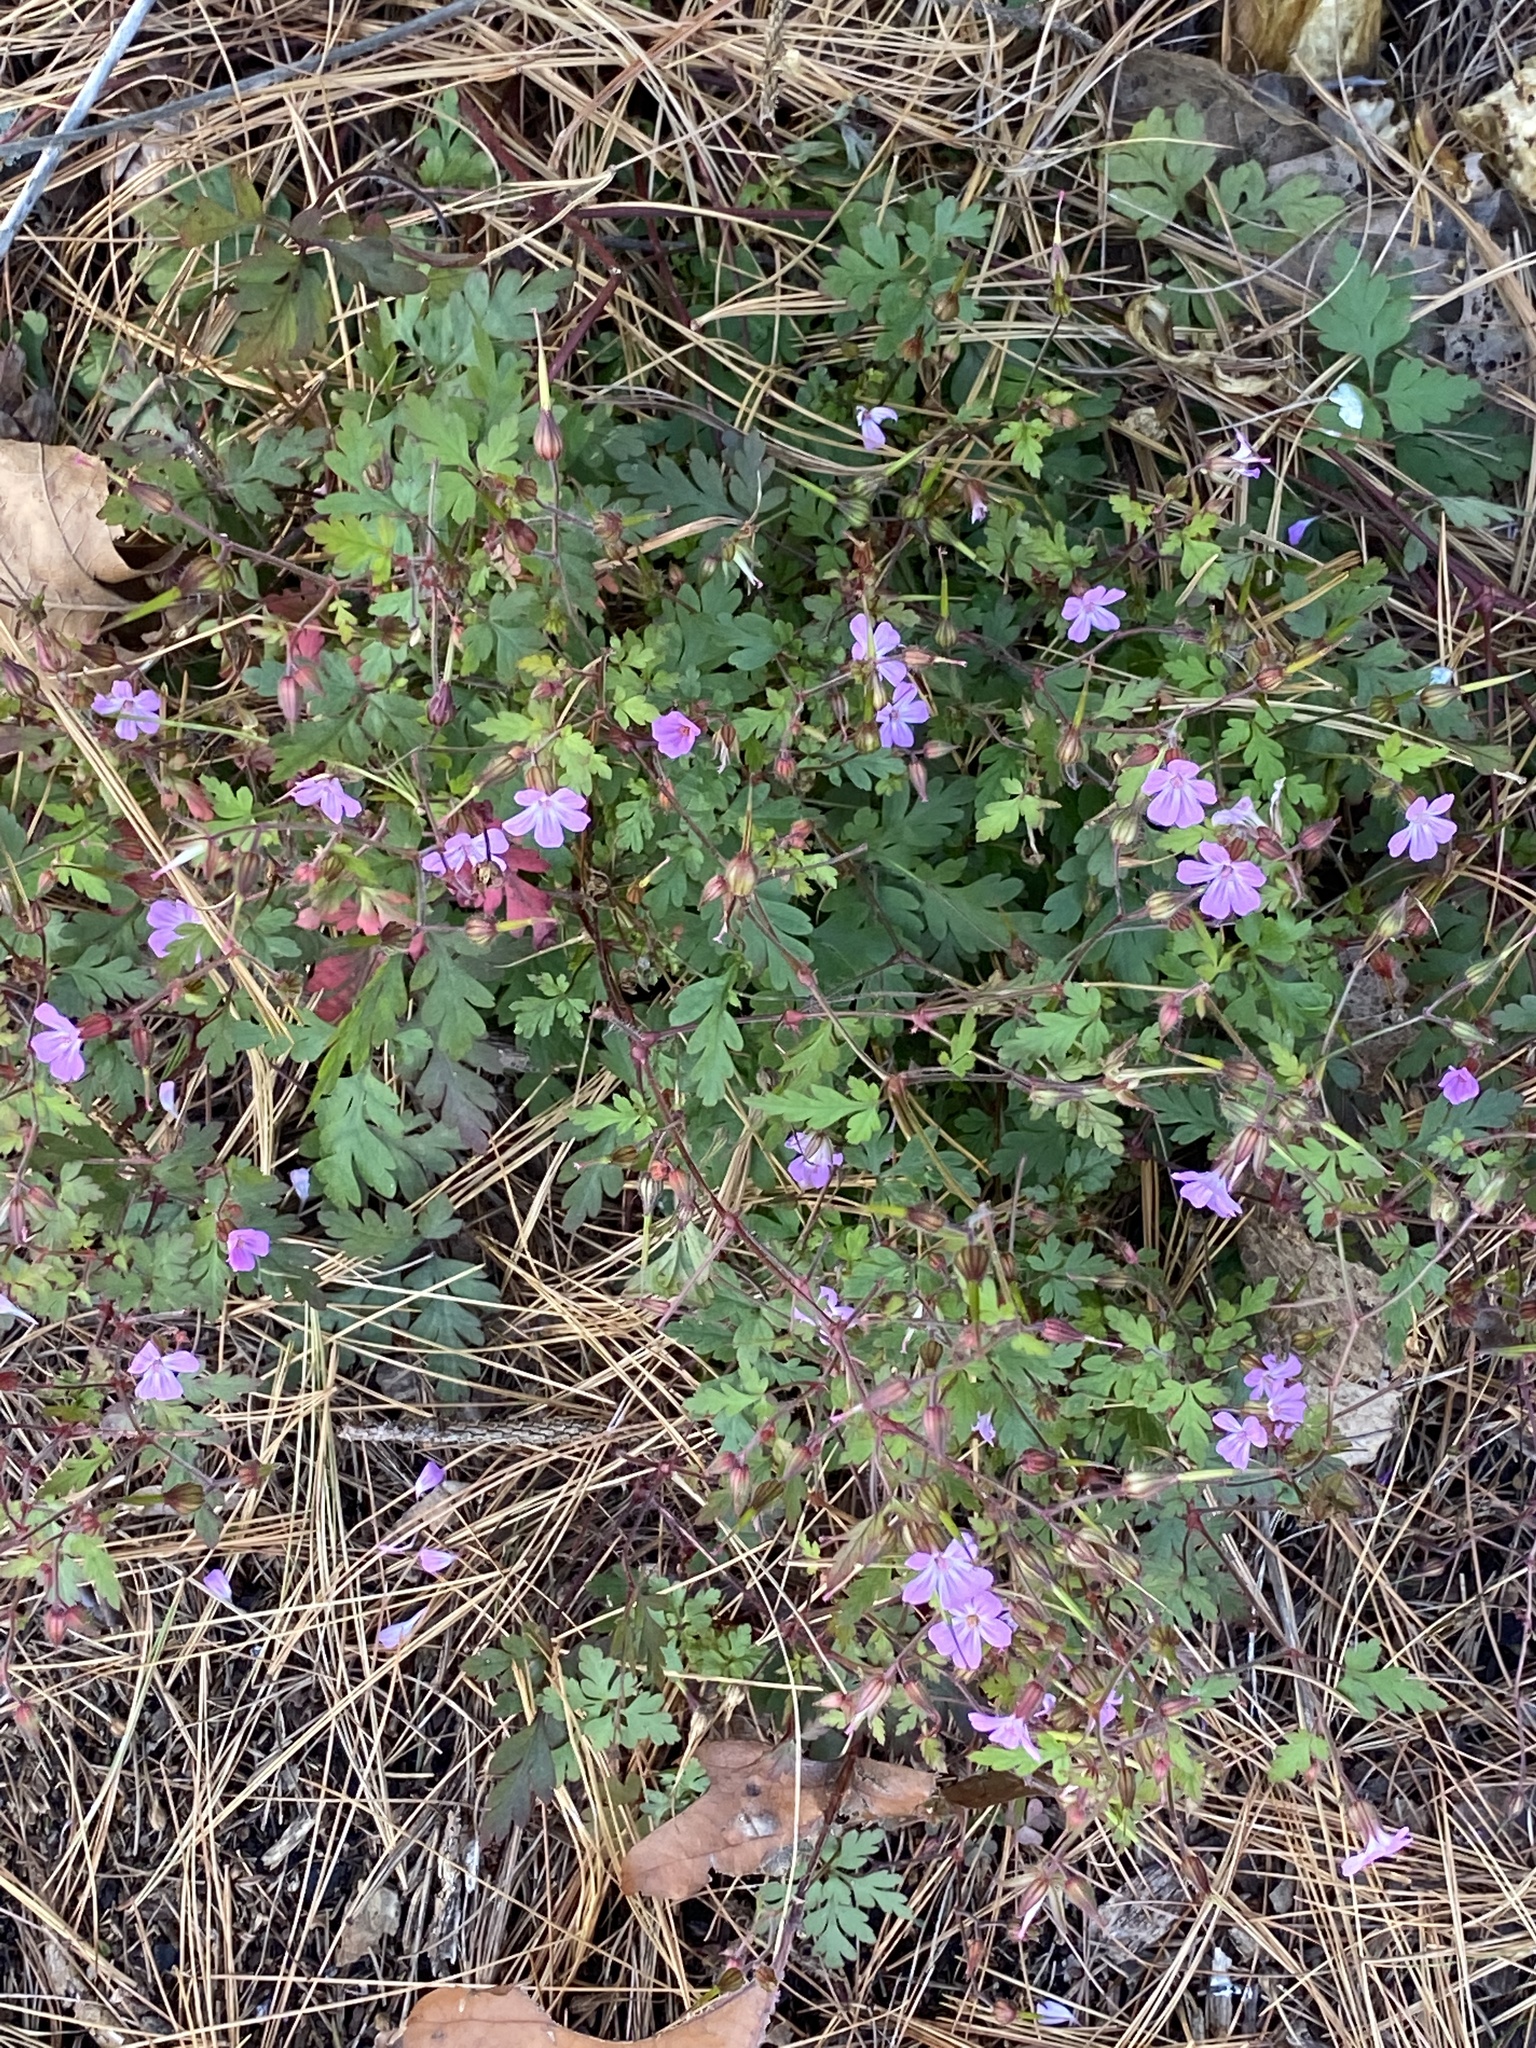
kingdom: Plantae
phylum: Tracheophyta
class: Magnoliopsida
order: Geraniales
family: Geraniaceae
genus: Geranium
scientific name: Geranium robertianum
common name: Herb-robert
